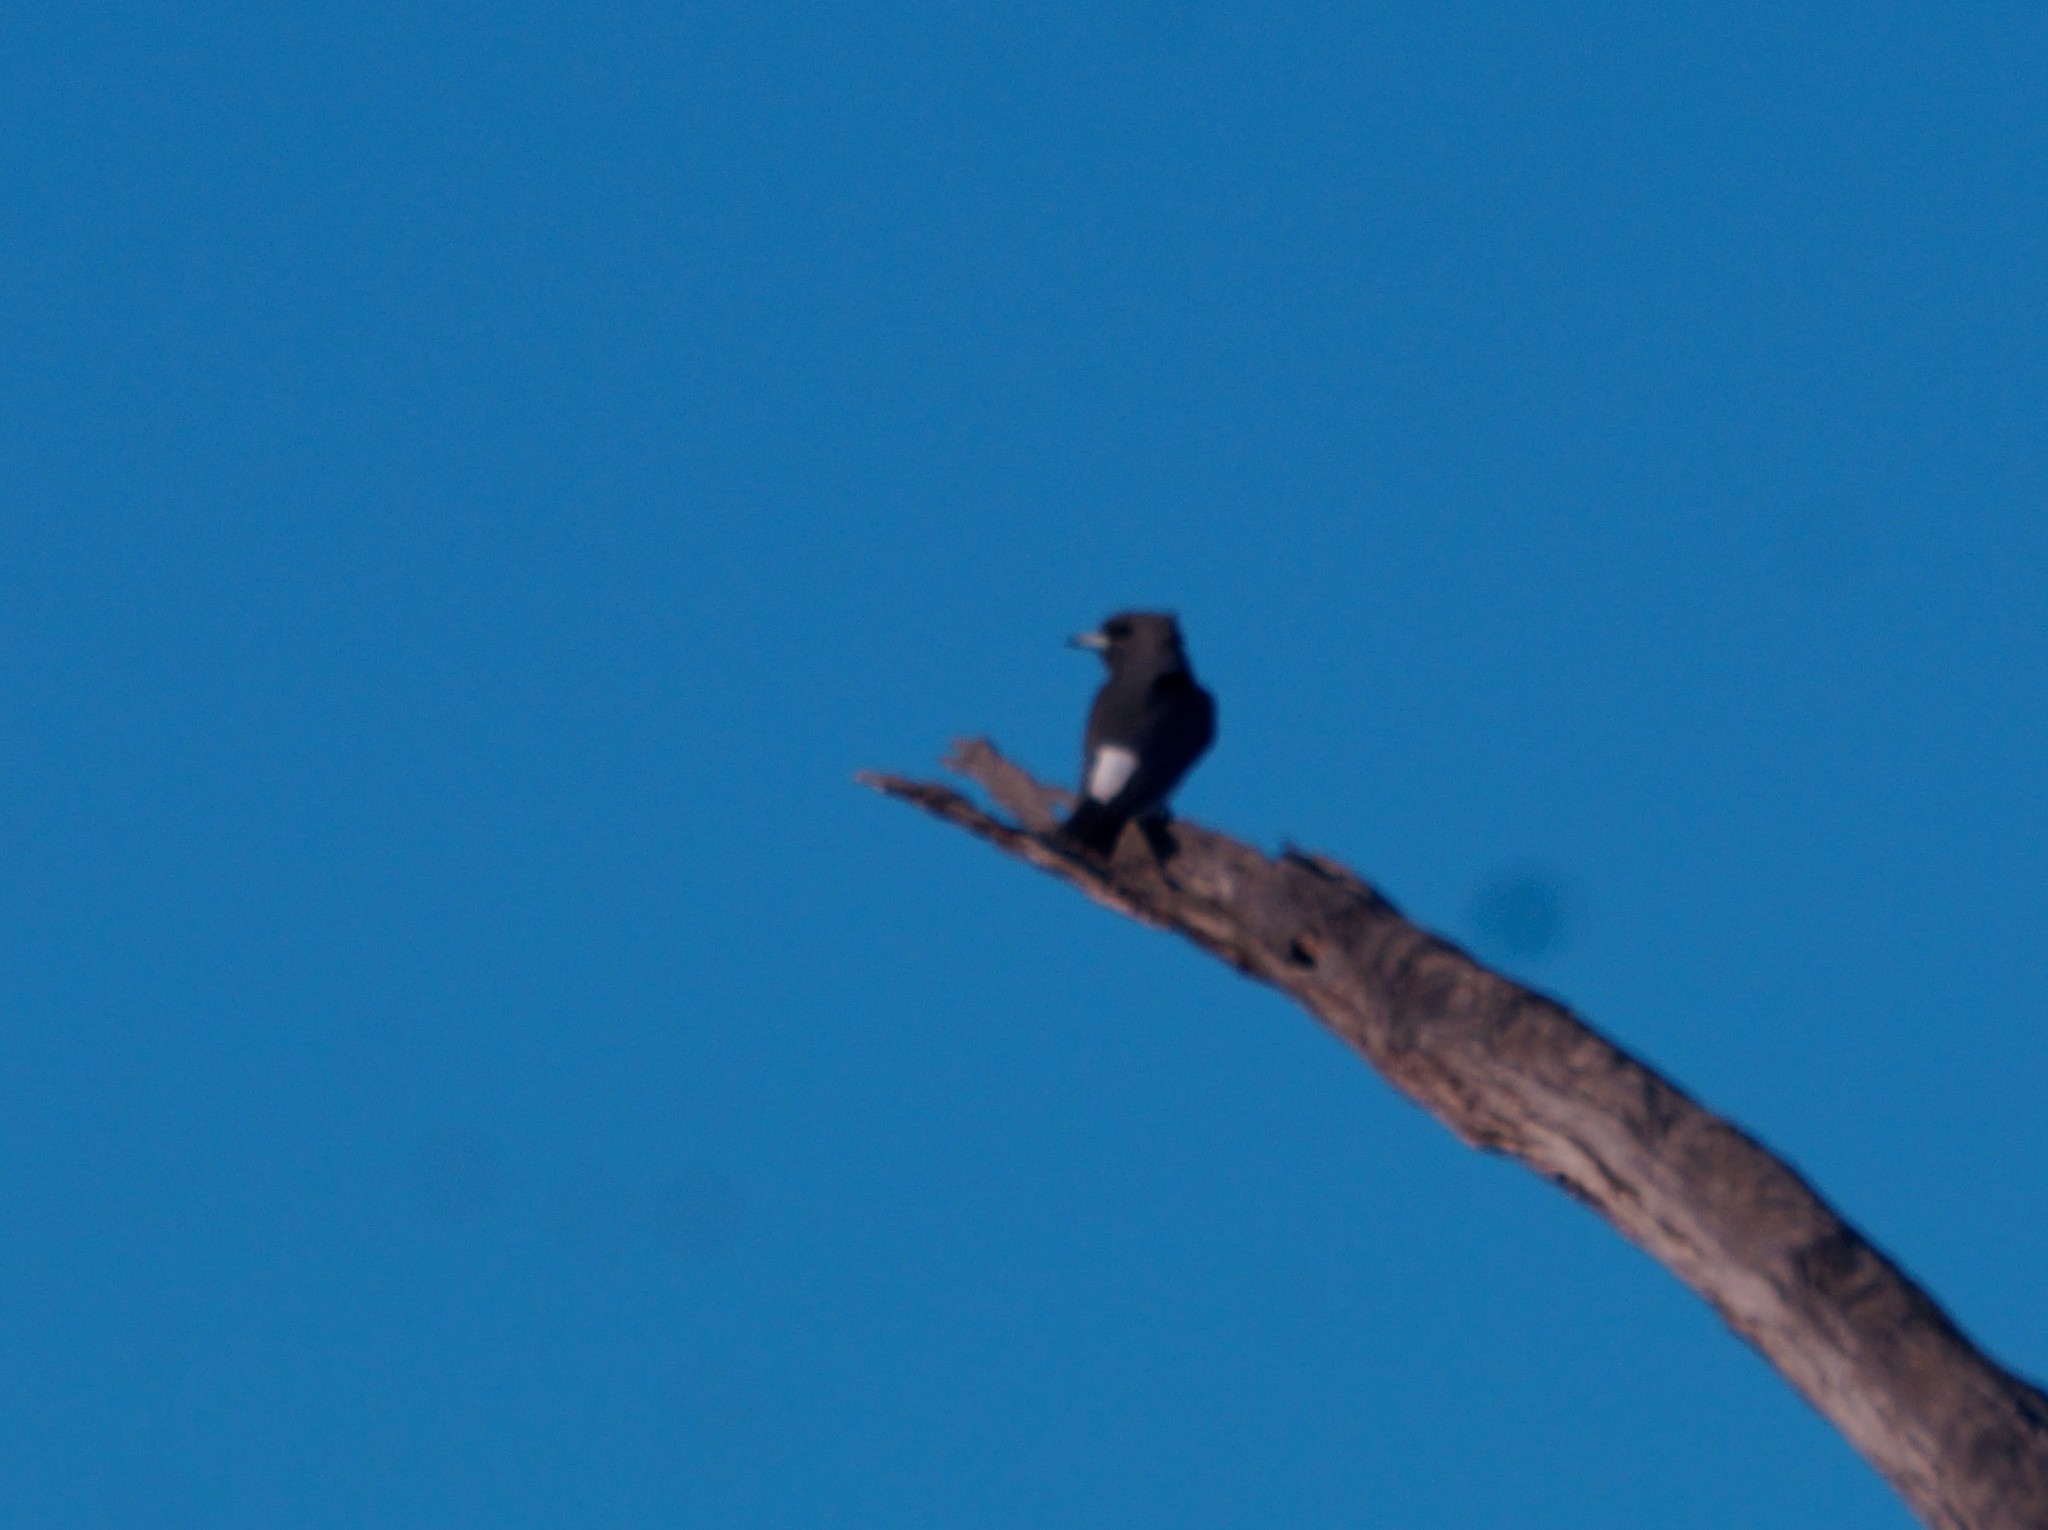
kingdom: Animalia
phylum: Chordata
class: Aves
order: Passeriformes
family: Artamidae
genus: Artamus
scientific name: Artamus leucoryn
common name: White-breasted woodswallow
